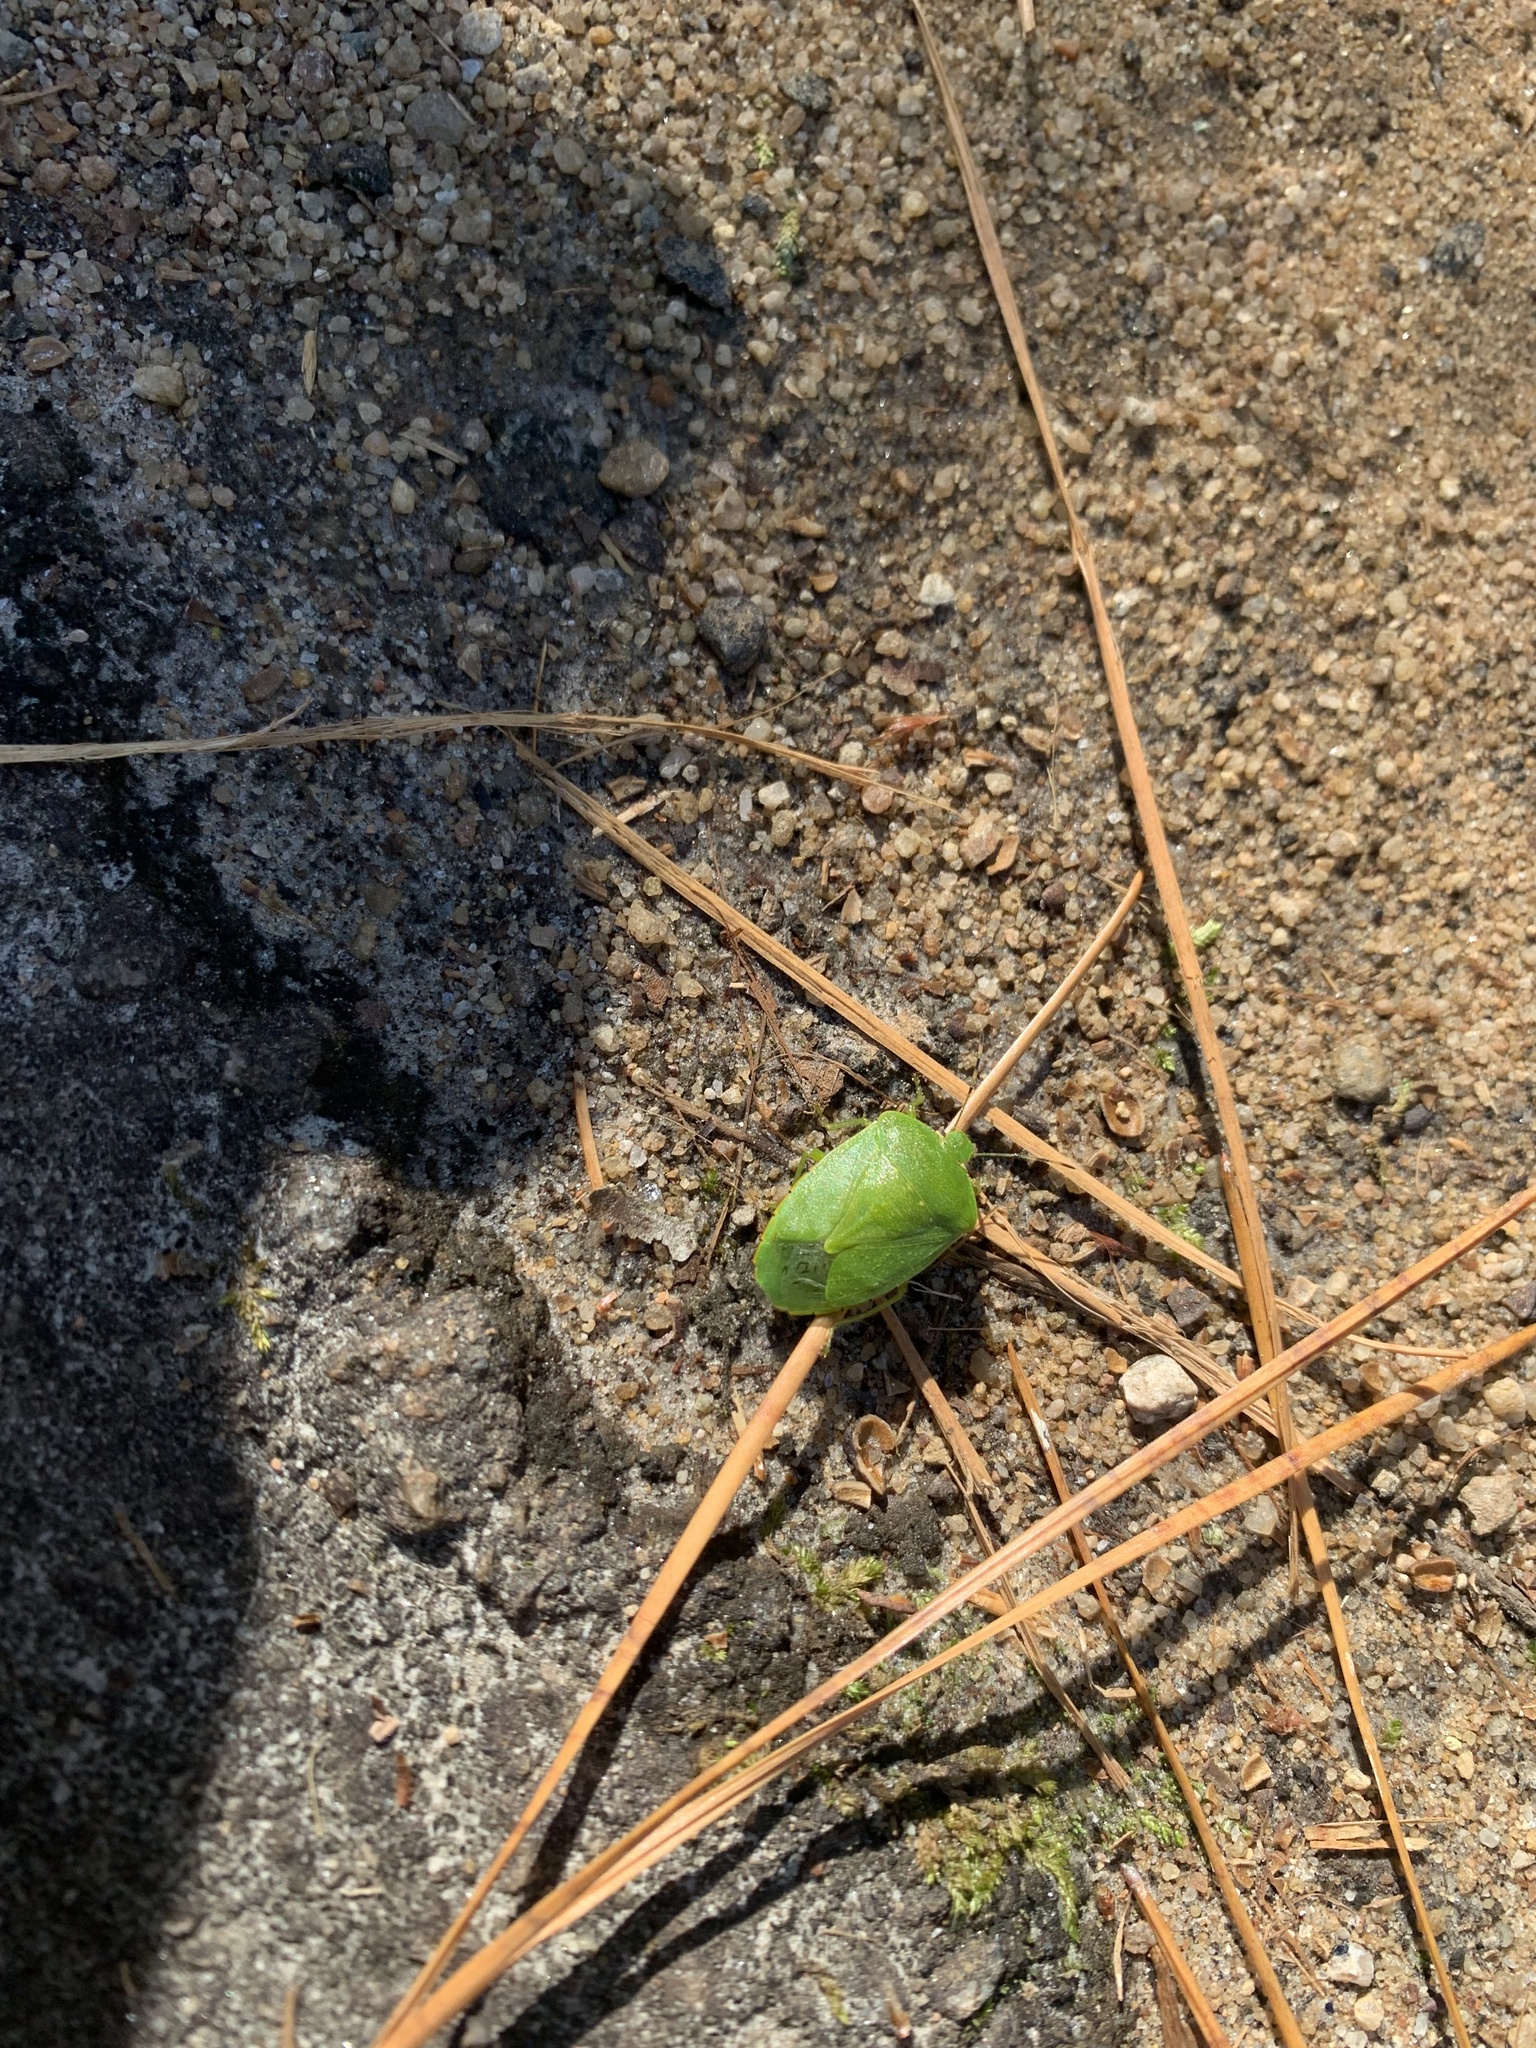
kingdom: Animalia
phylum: Arthropoda
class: Insecta
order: Hemiptera
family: Pentatomidae
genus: Chinavia
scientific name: Chinavia hilaris
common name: Green stink bug
